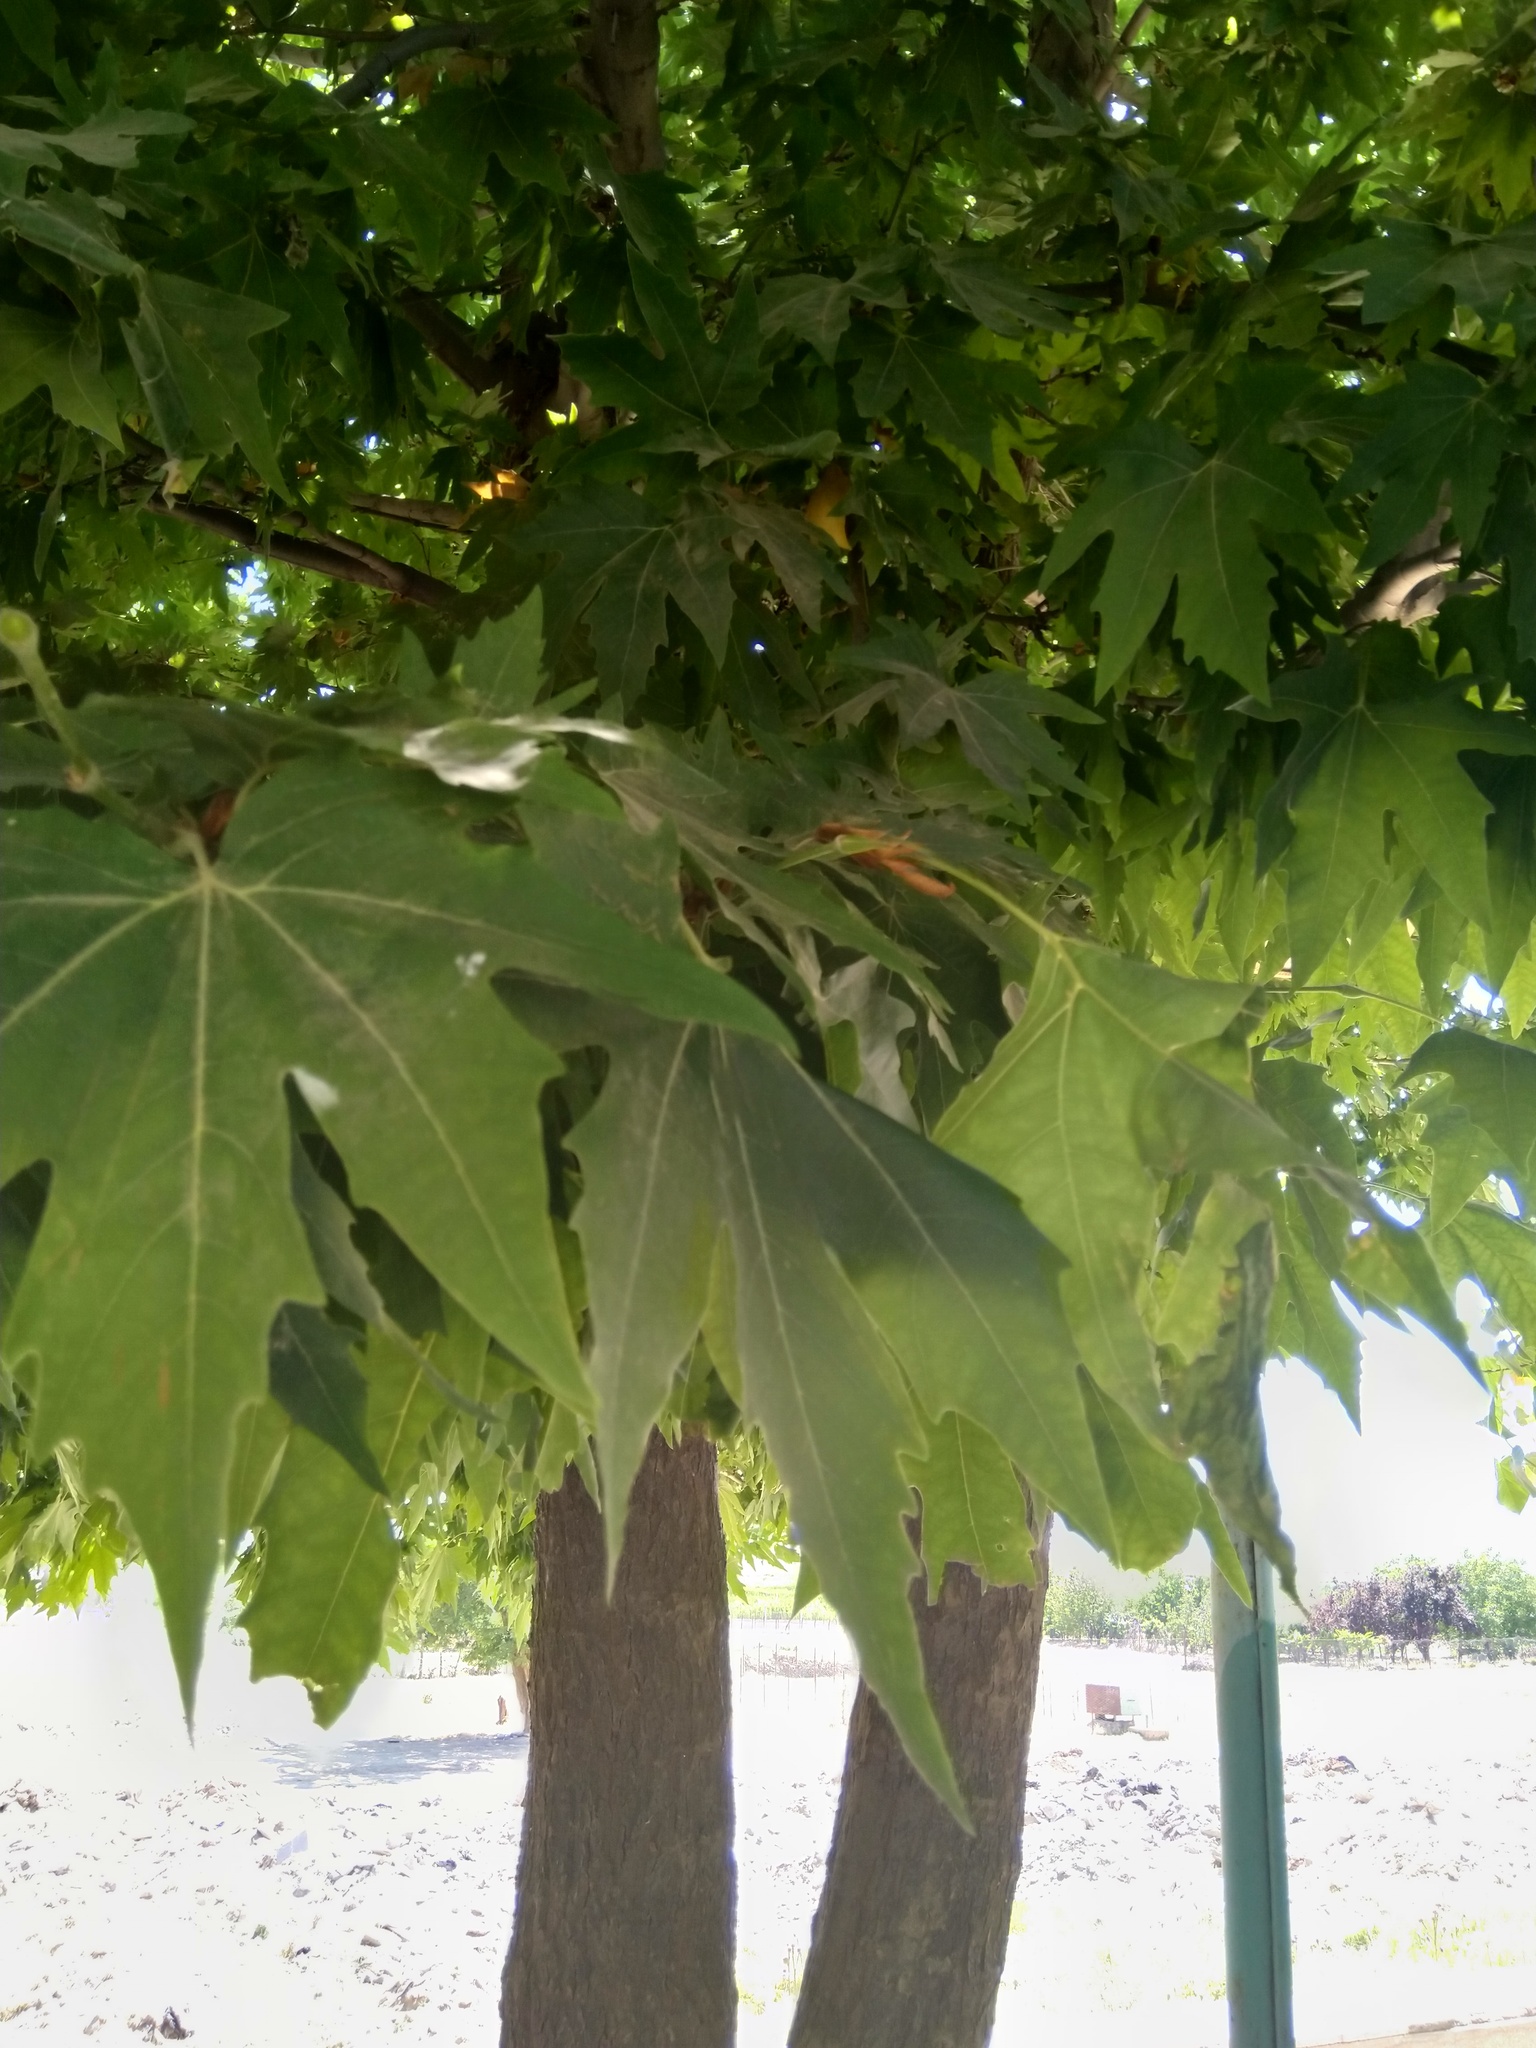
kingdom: Plantae
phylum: Tracheophyta
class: Magnoliopsida
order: Proteales
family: Platanaceae
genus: Platanus
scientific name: Platanus orientalis
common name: Oriental plane
